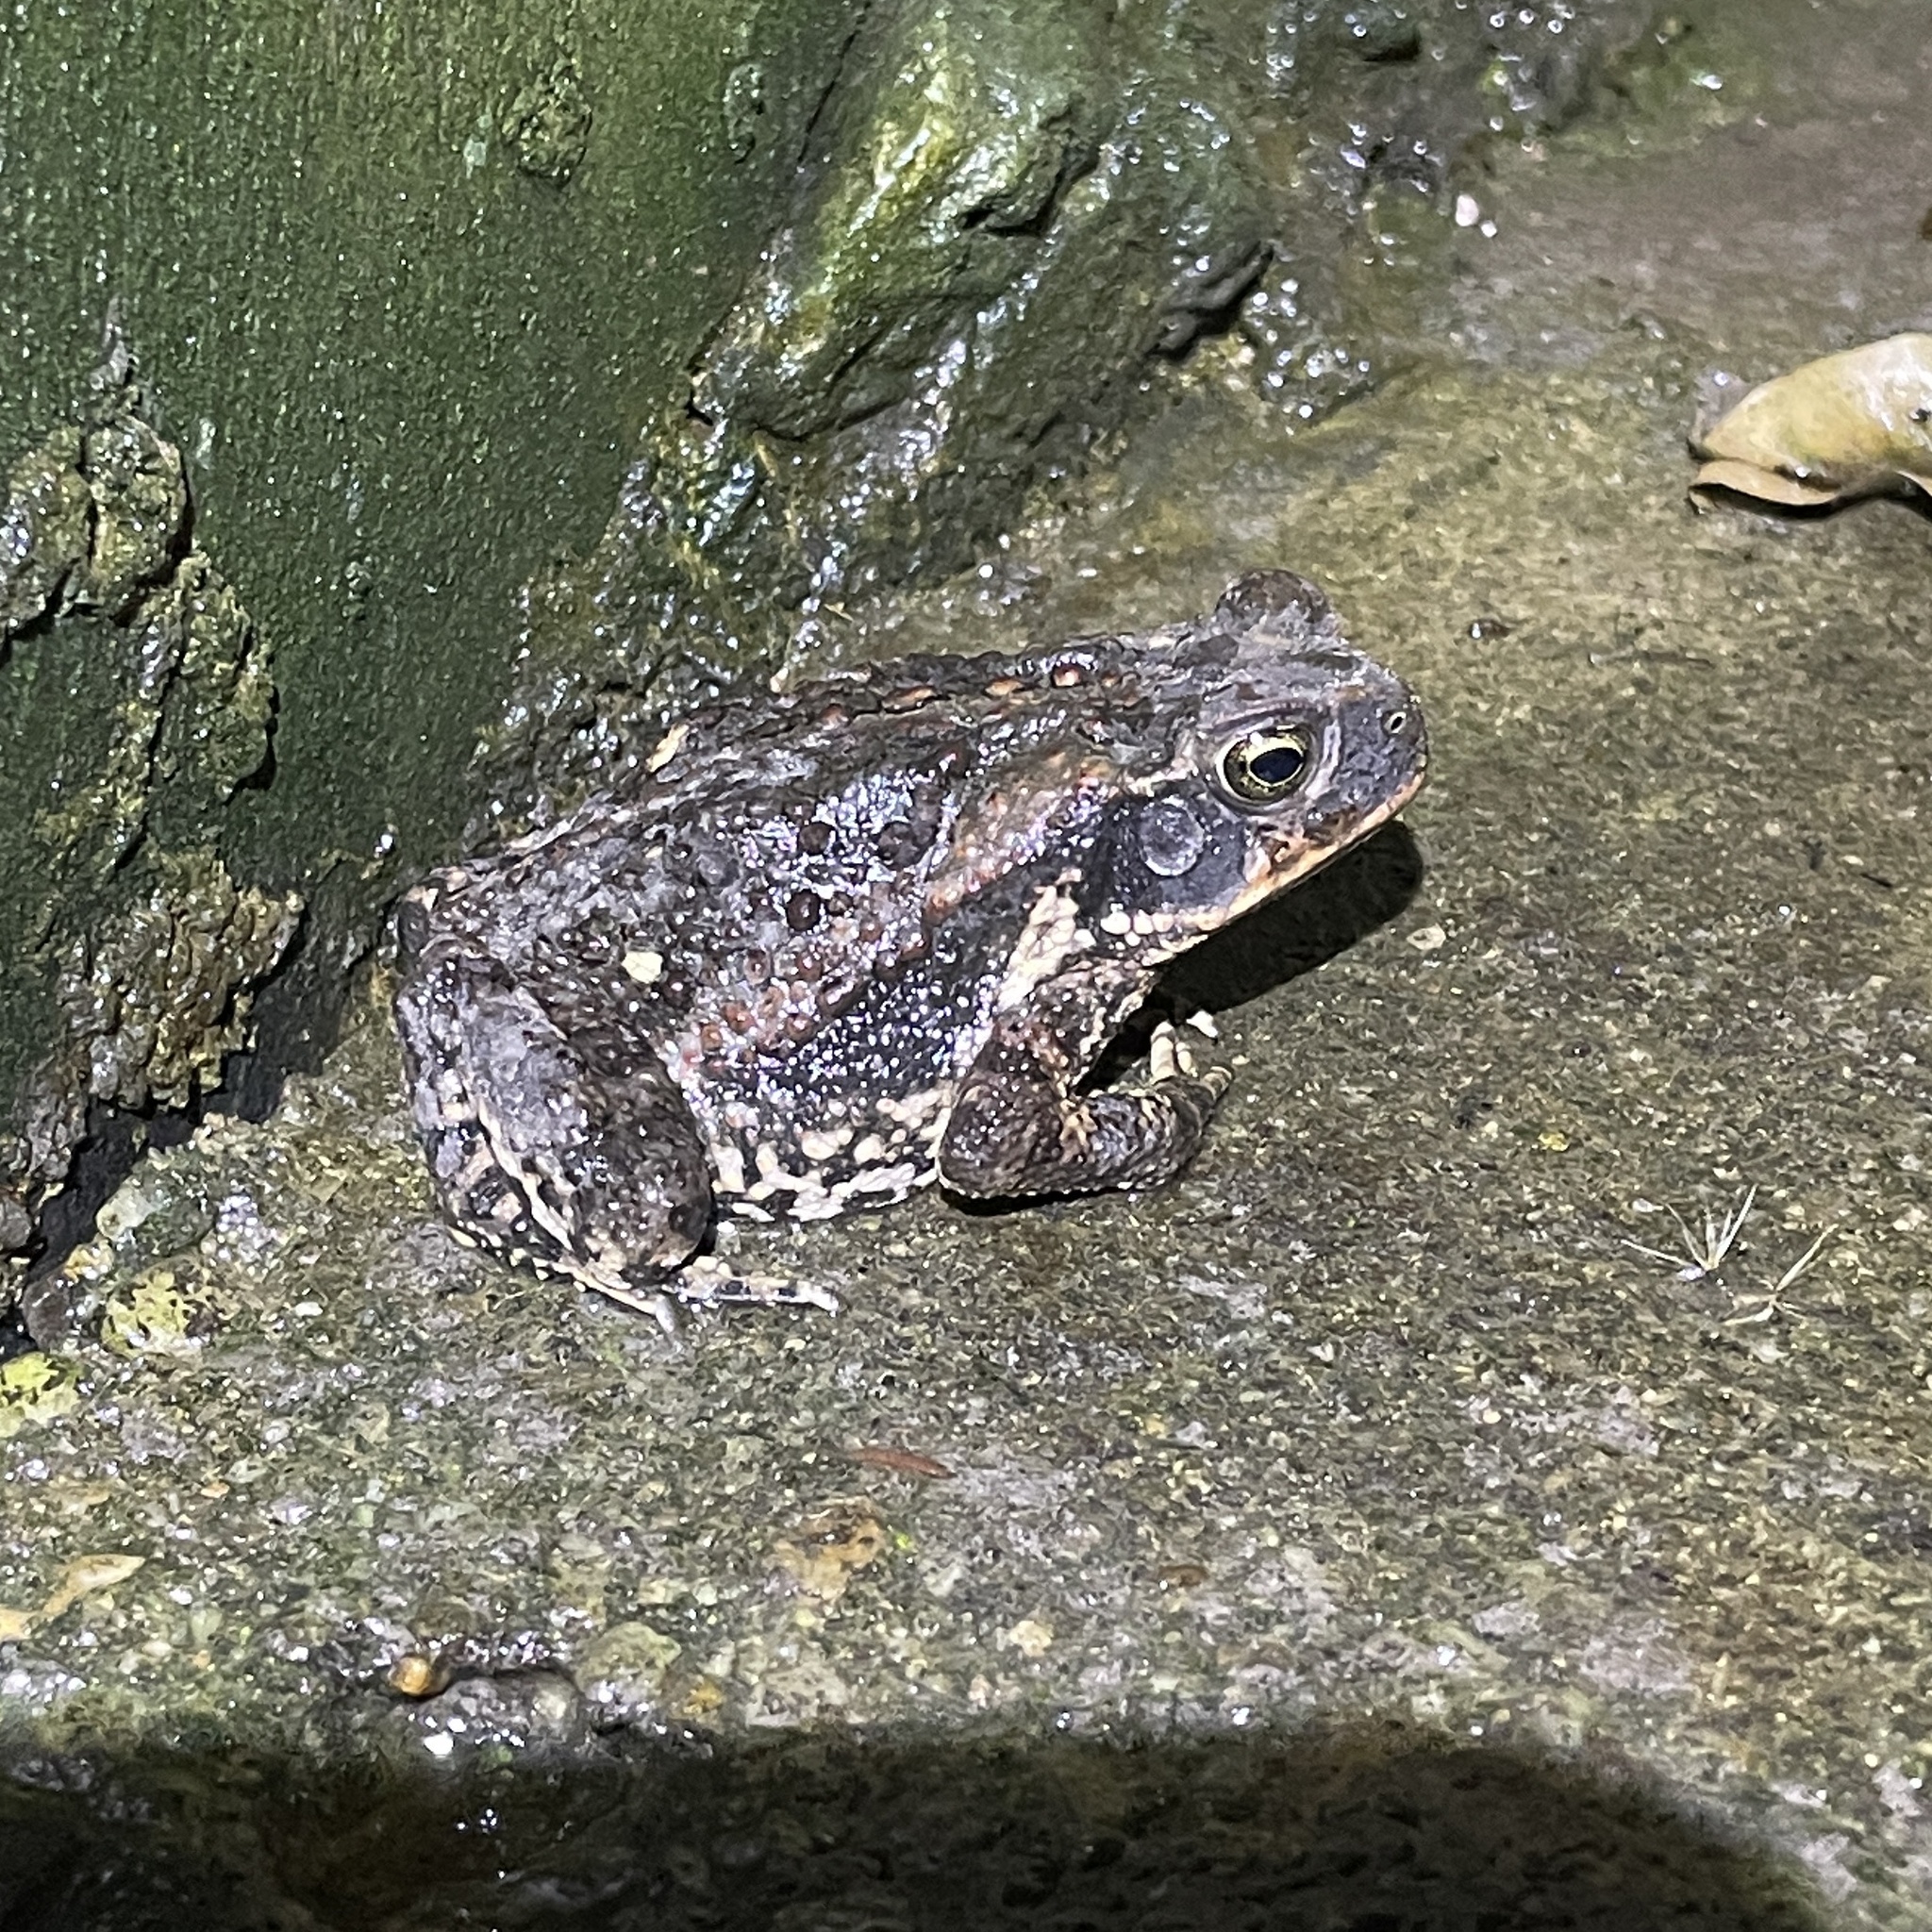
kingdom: Animalia
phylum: Chordata
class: Amphibia
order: Anura
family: Bufonidae
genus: Rhinella
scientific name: Rhinella marina
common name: Cane toad
